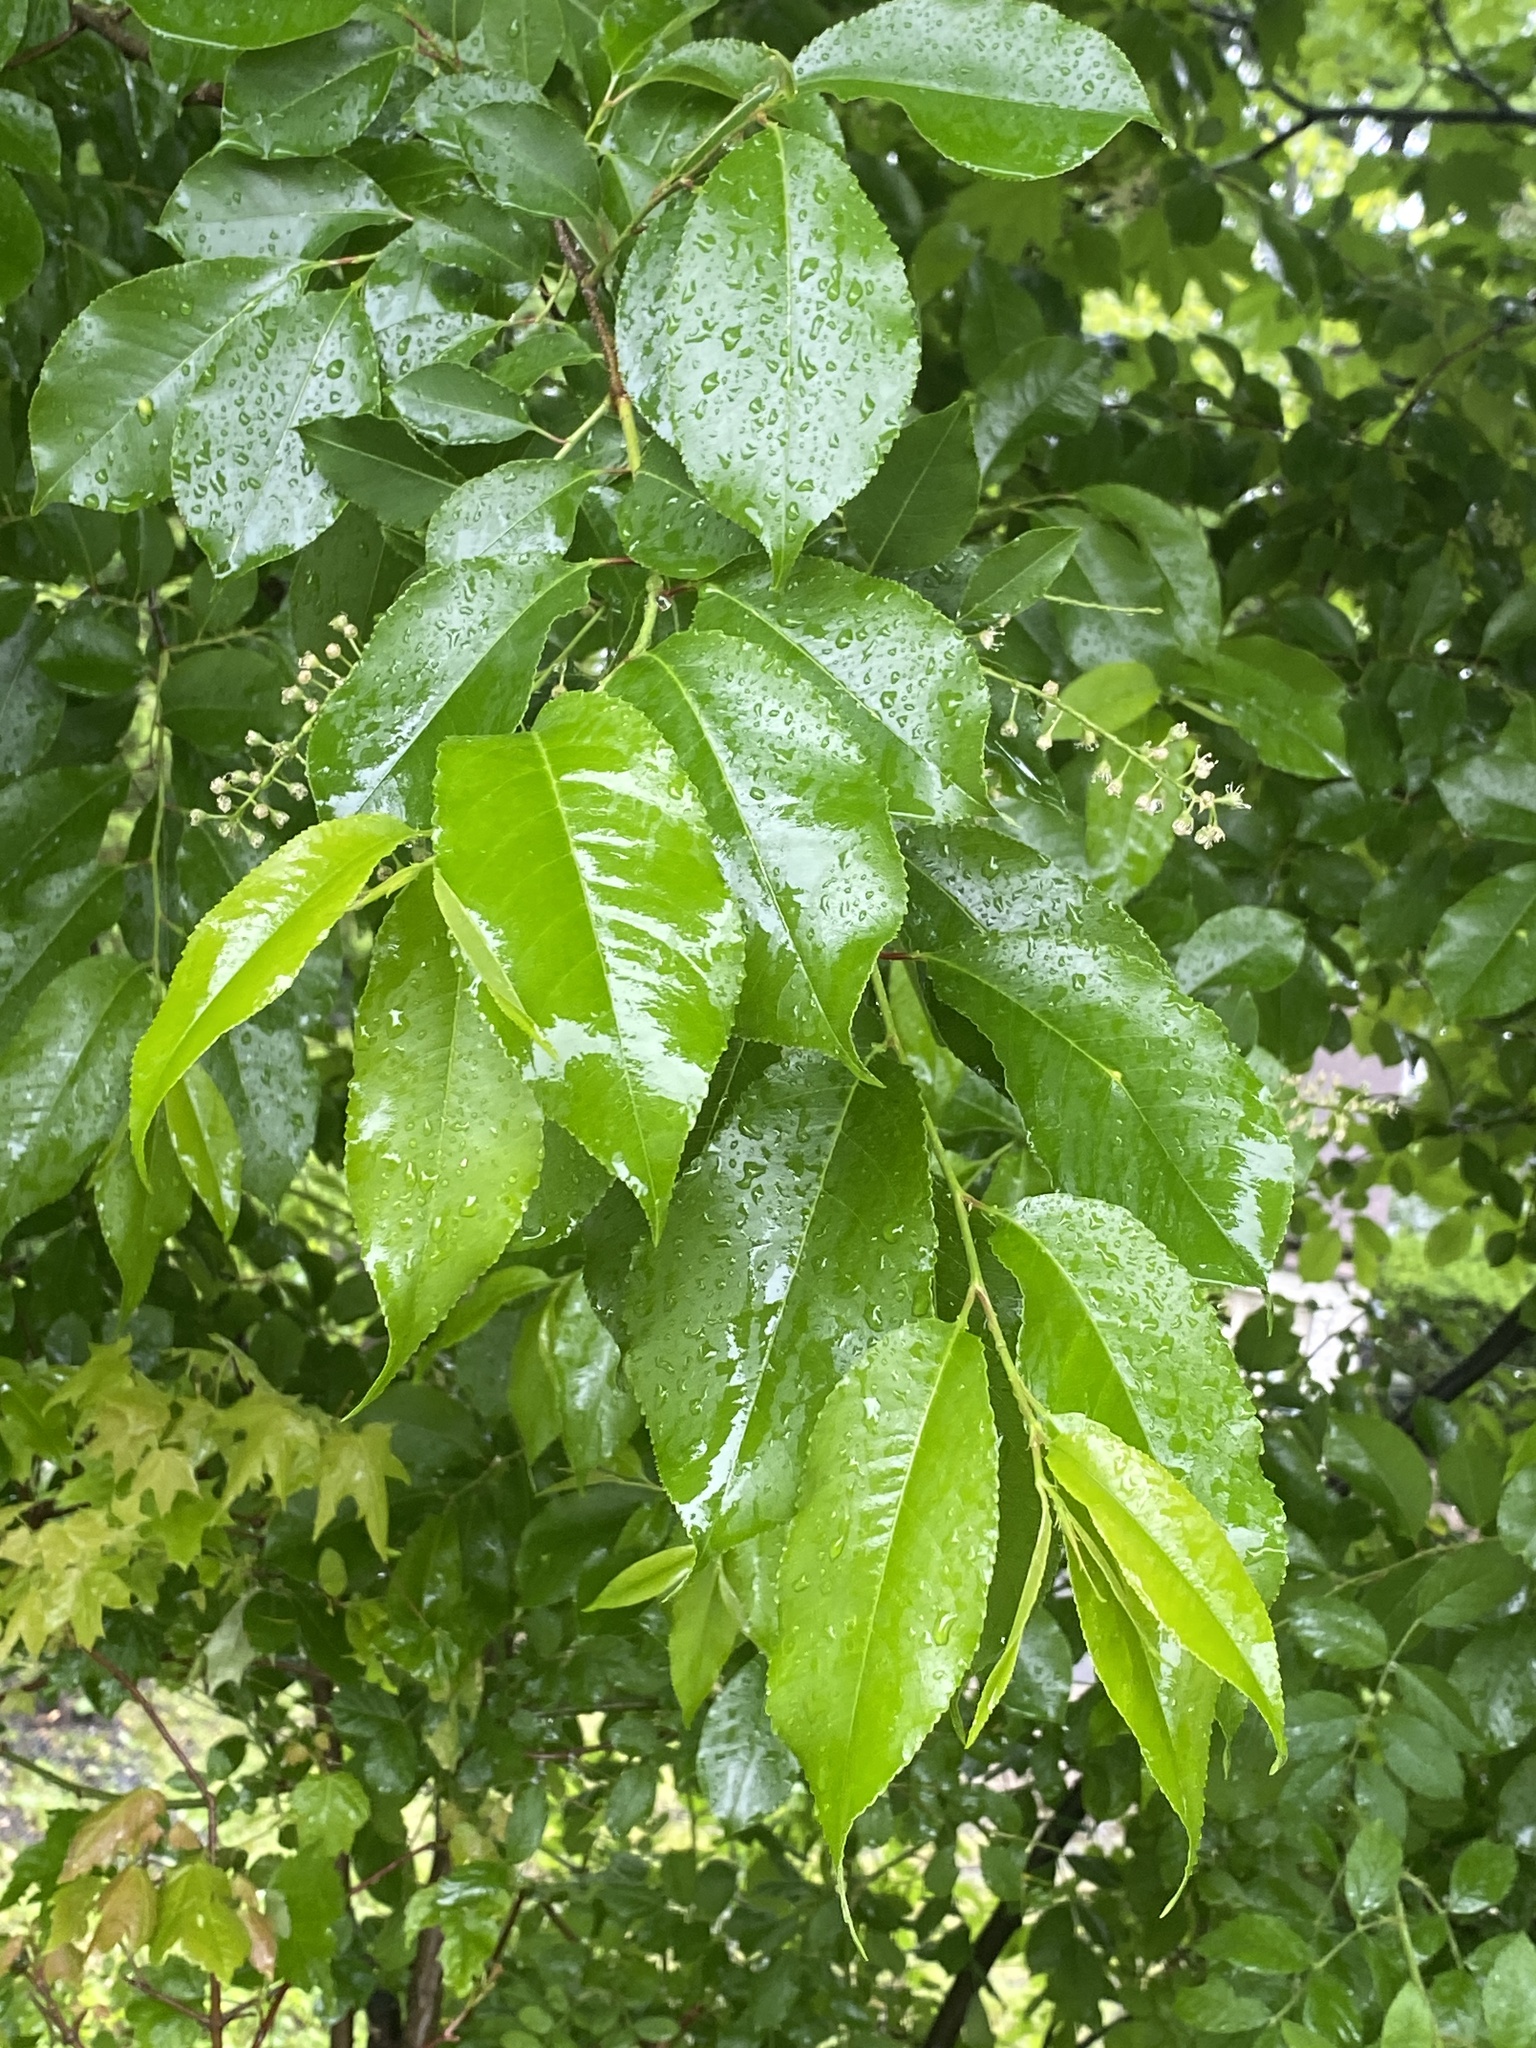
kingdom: Plantae
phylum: Tracheophyta
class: Magnoliopsida
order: Rosales
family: Rosaceae
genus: Prunus
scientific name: Prunus serotina
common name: Black cherry
